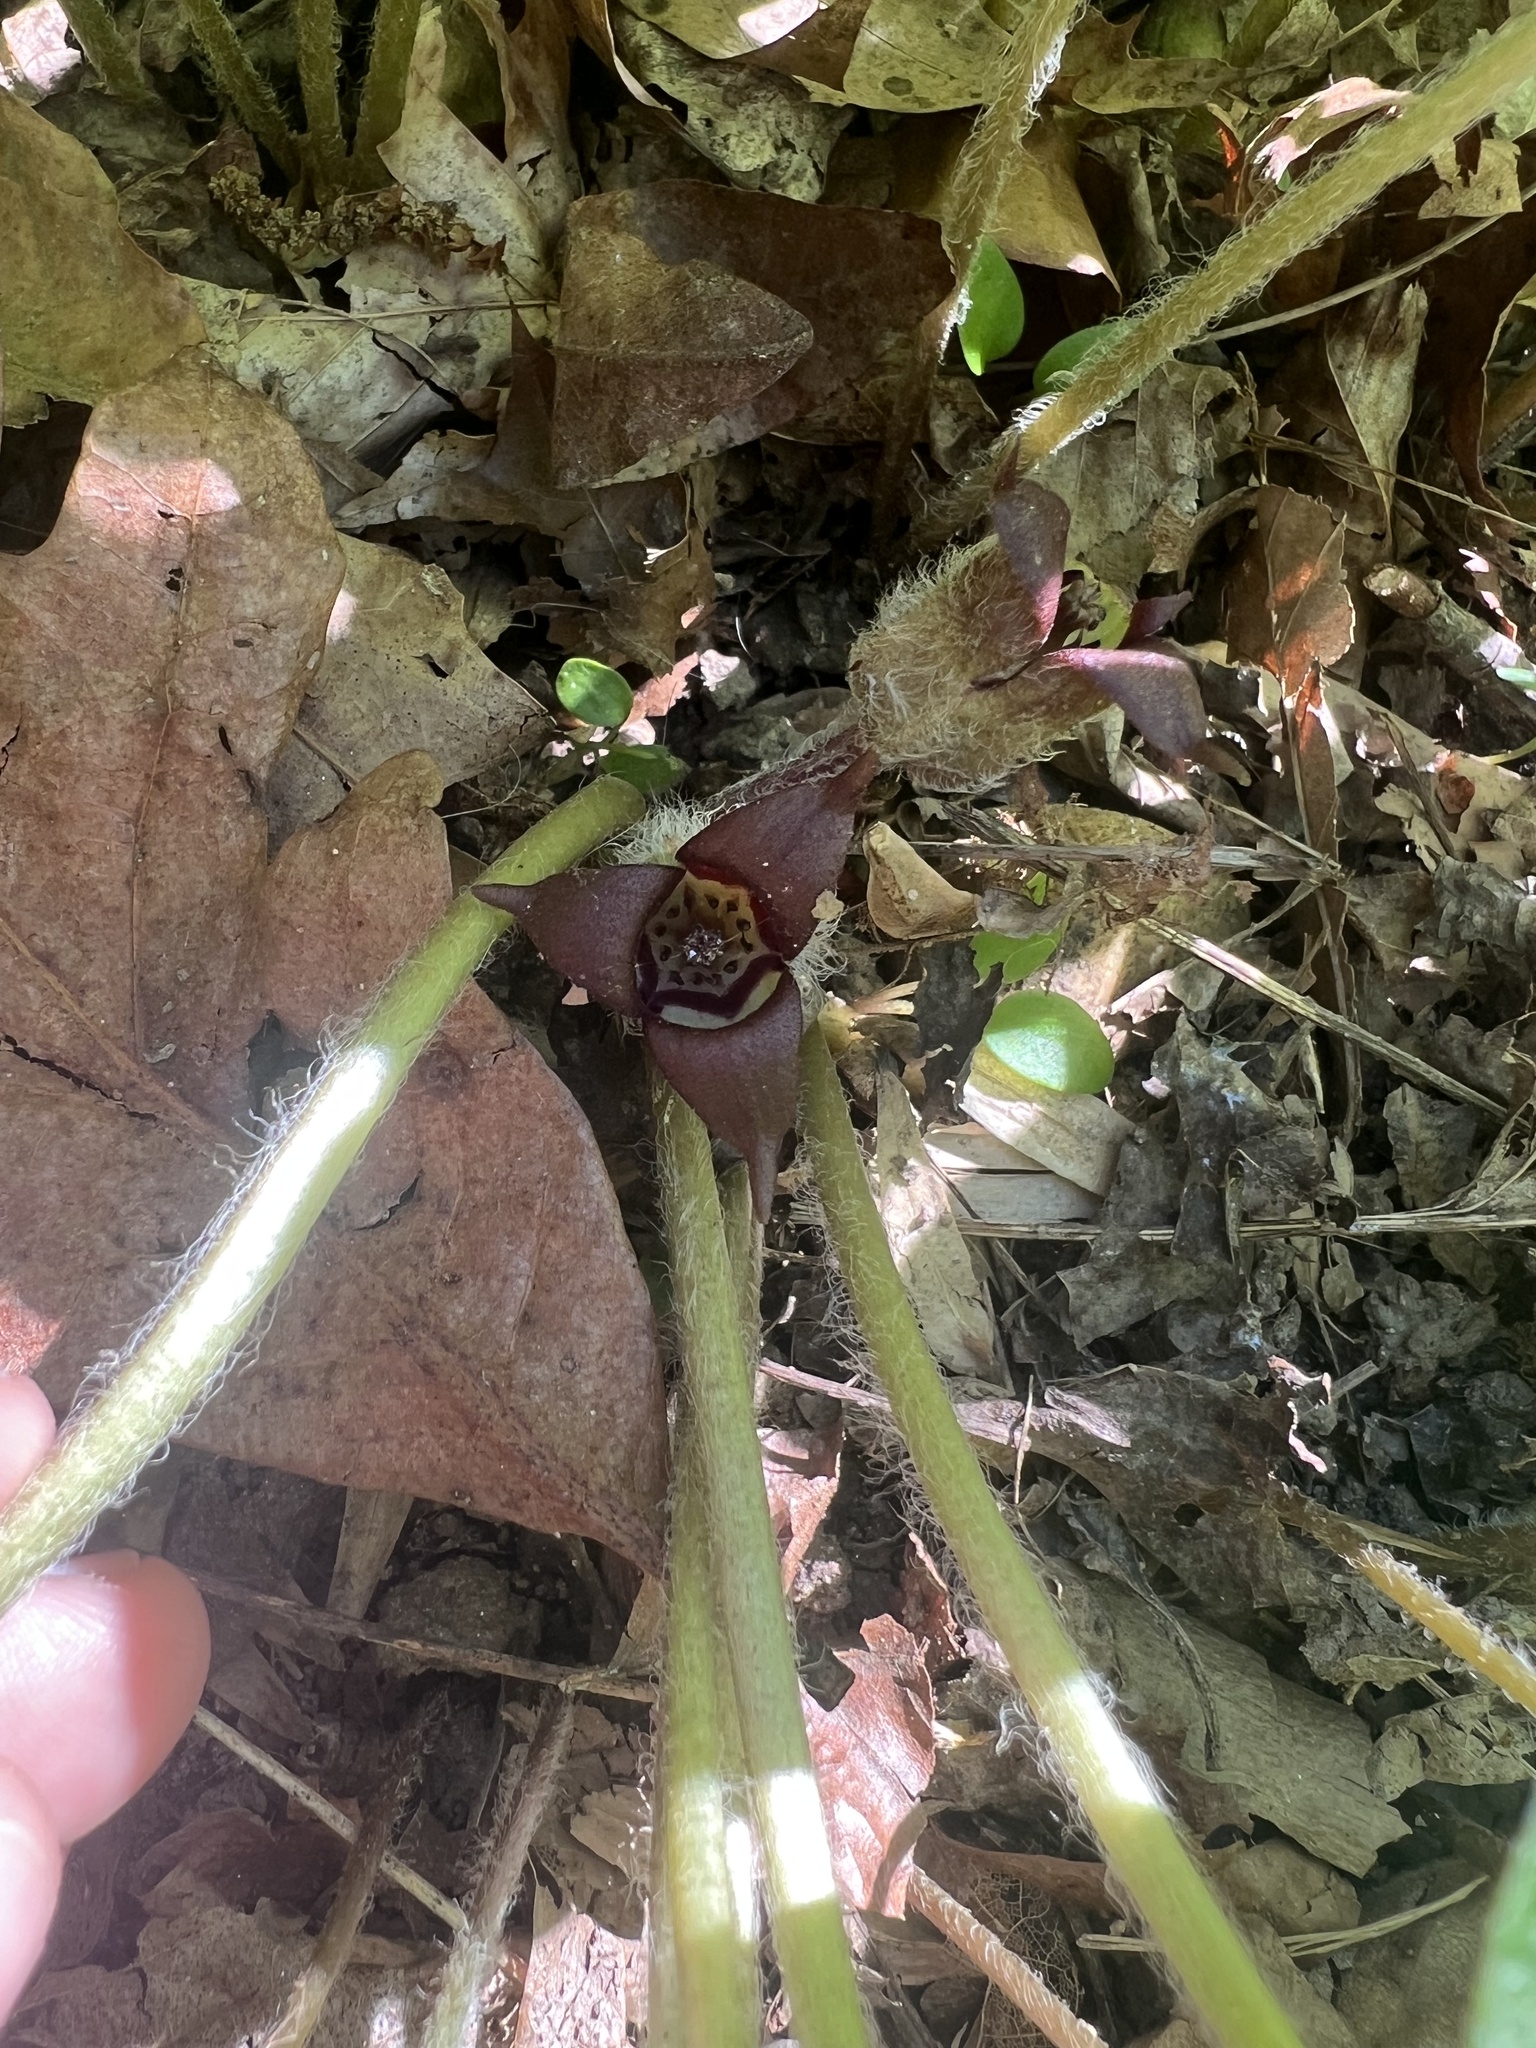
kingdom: Plantae
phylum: Tracheophyta
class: Magnoliopsida
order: Piperales
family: Aristolochiaceae
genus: Asarum
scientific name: Asarum canadense
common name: Wild ginger
